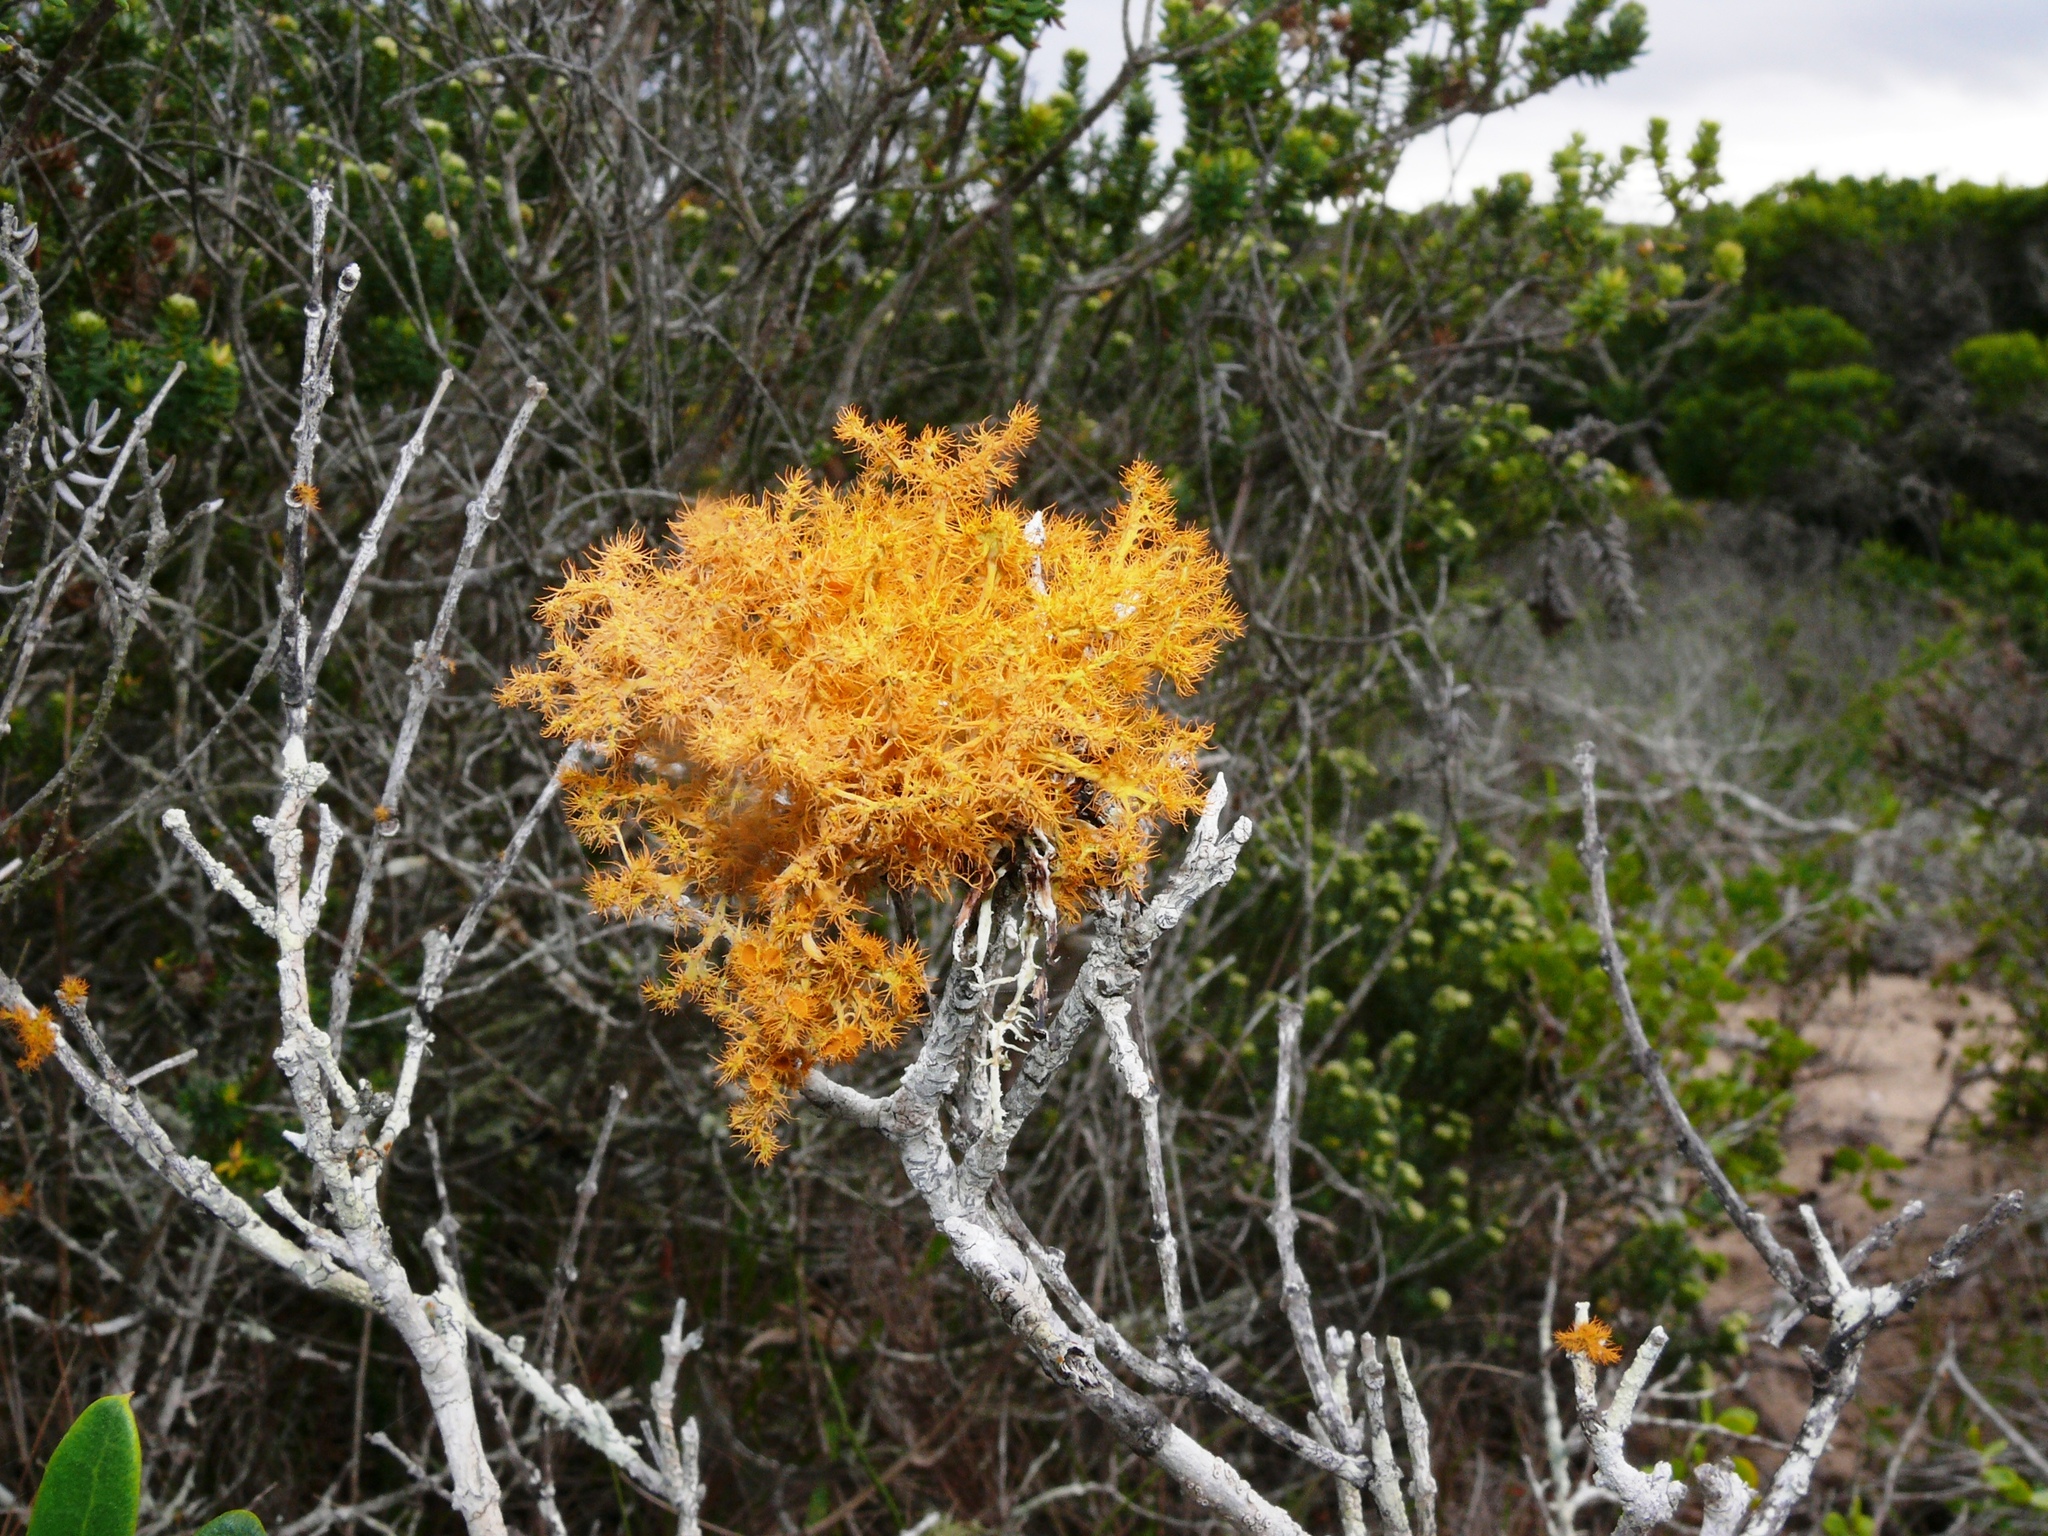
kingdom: Fungi
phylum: Ascomycota
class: Lecanoromycetes
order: Teloschistales
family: Teloschistaceae
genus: Teloschistes
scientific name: Teloschistes puber
